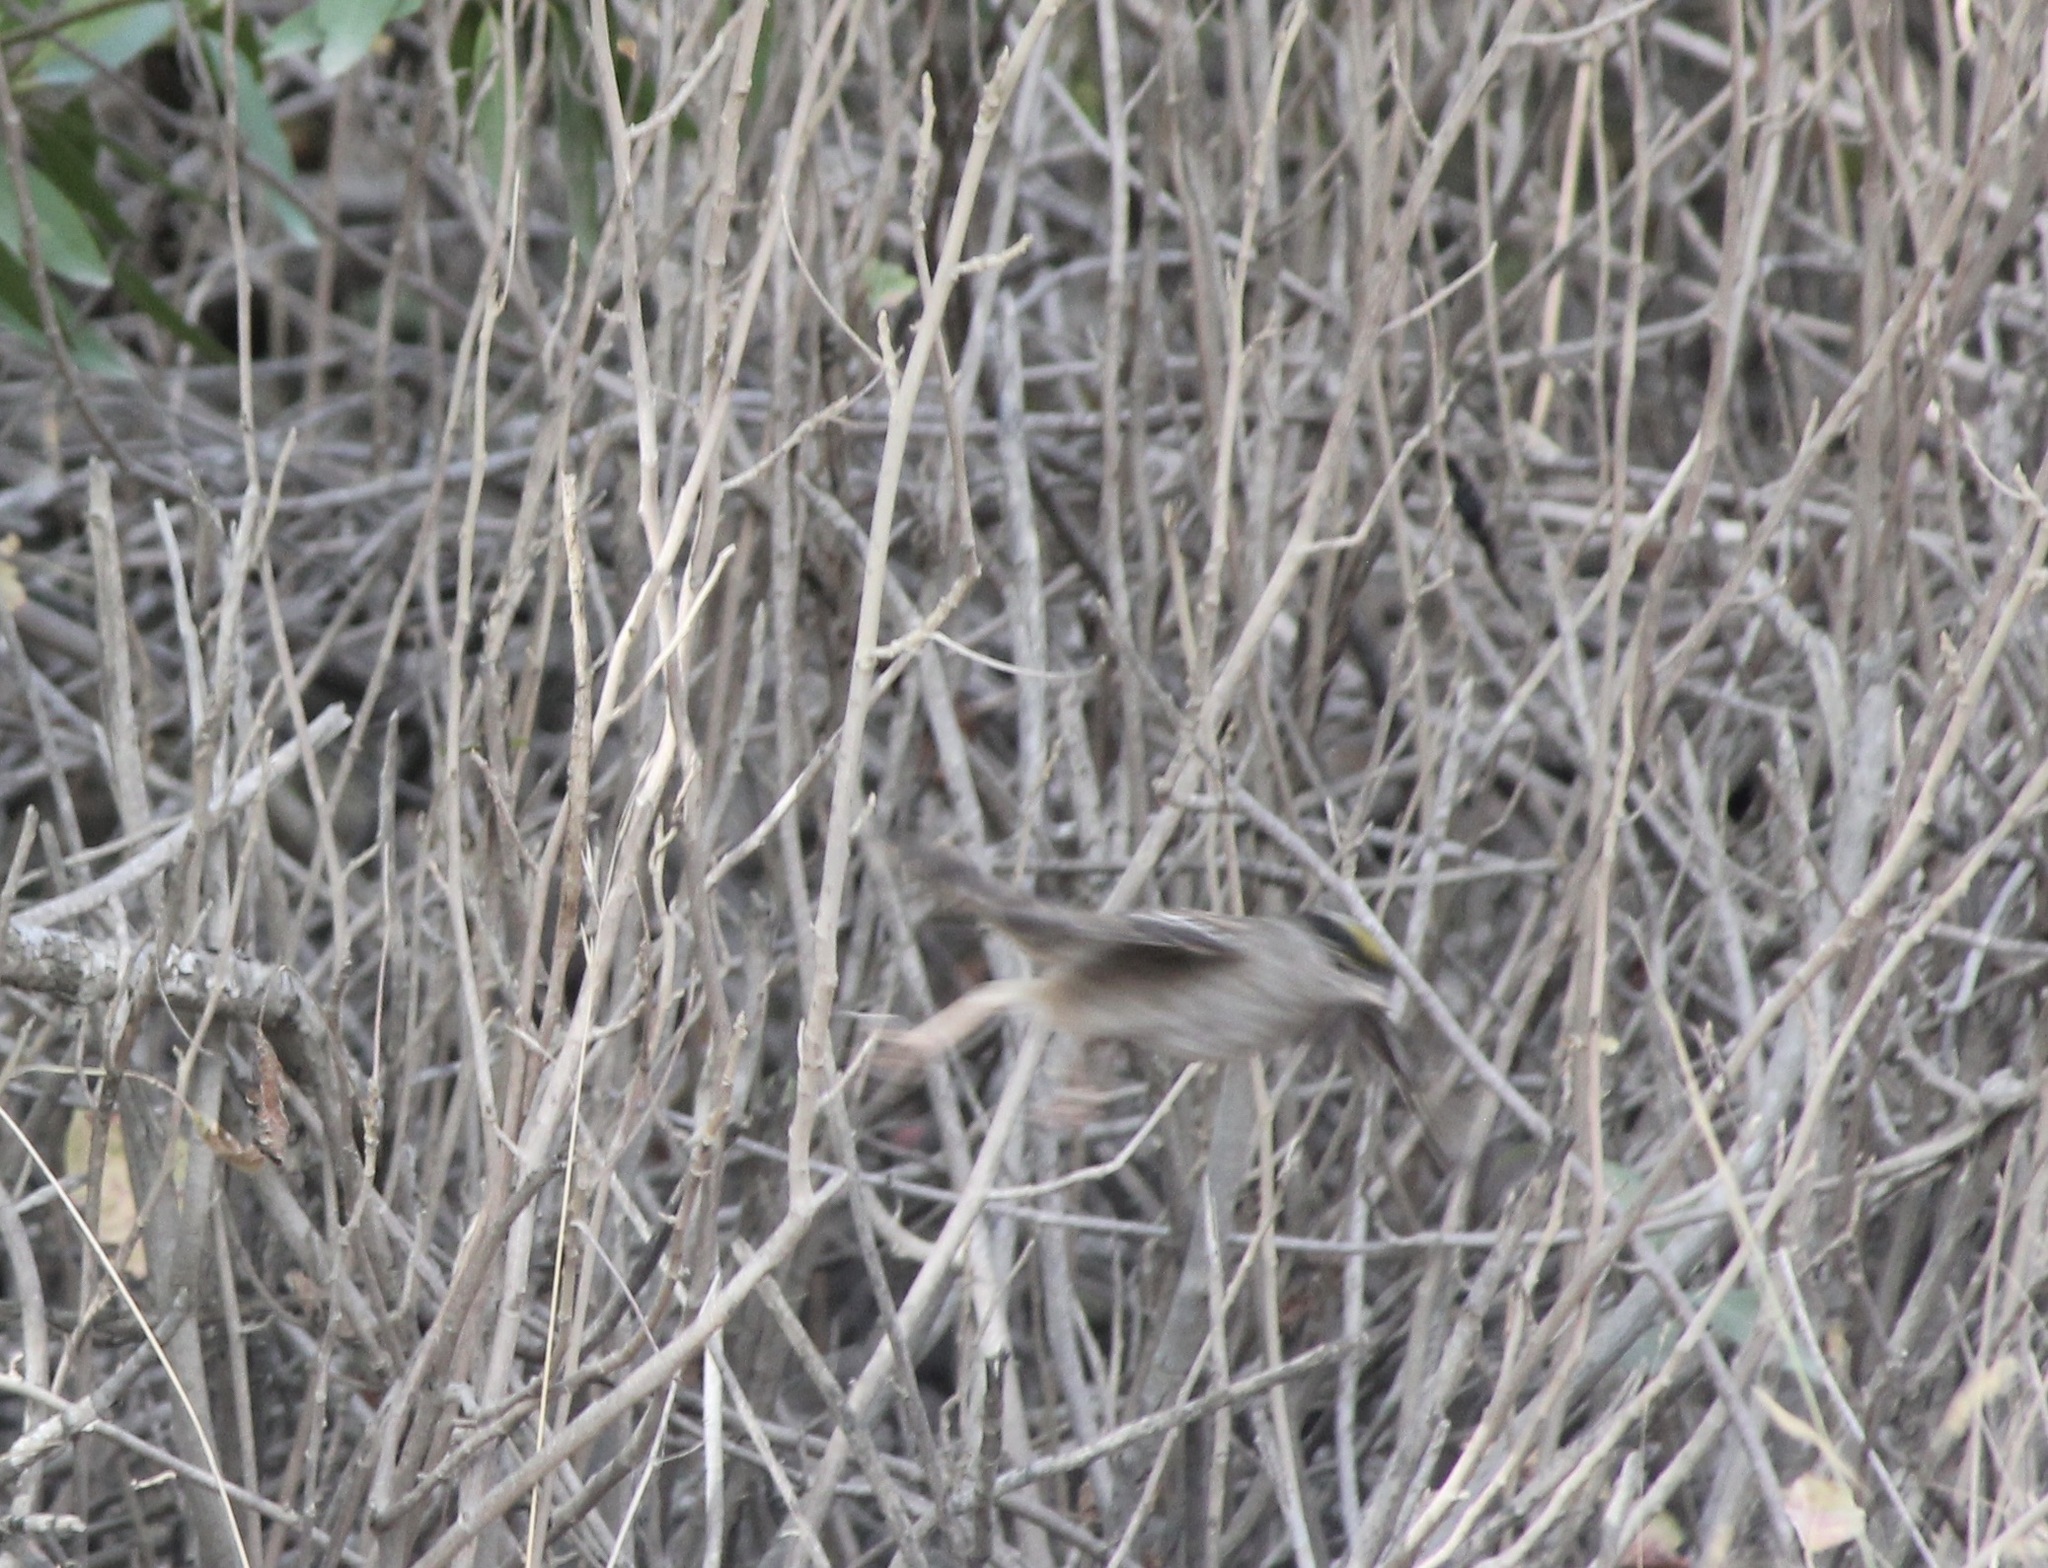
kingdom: Animalia
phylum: Chordata
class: Aves
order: Passeriformes
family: Passerellidae
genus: Zonotrichia
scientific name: Zonotrichia atricapilla
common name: Golden-crowned sparrow
